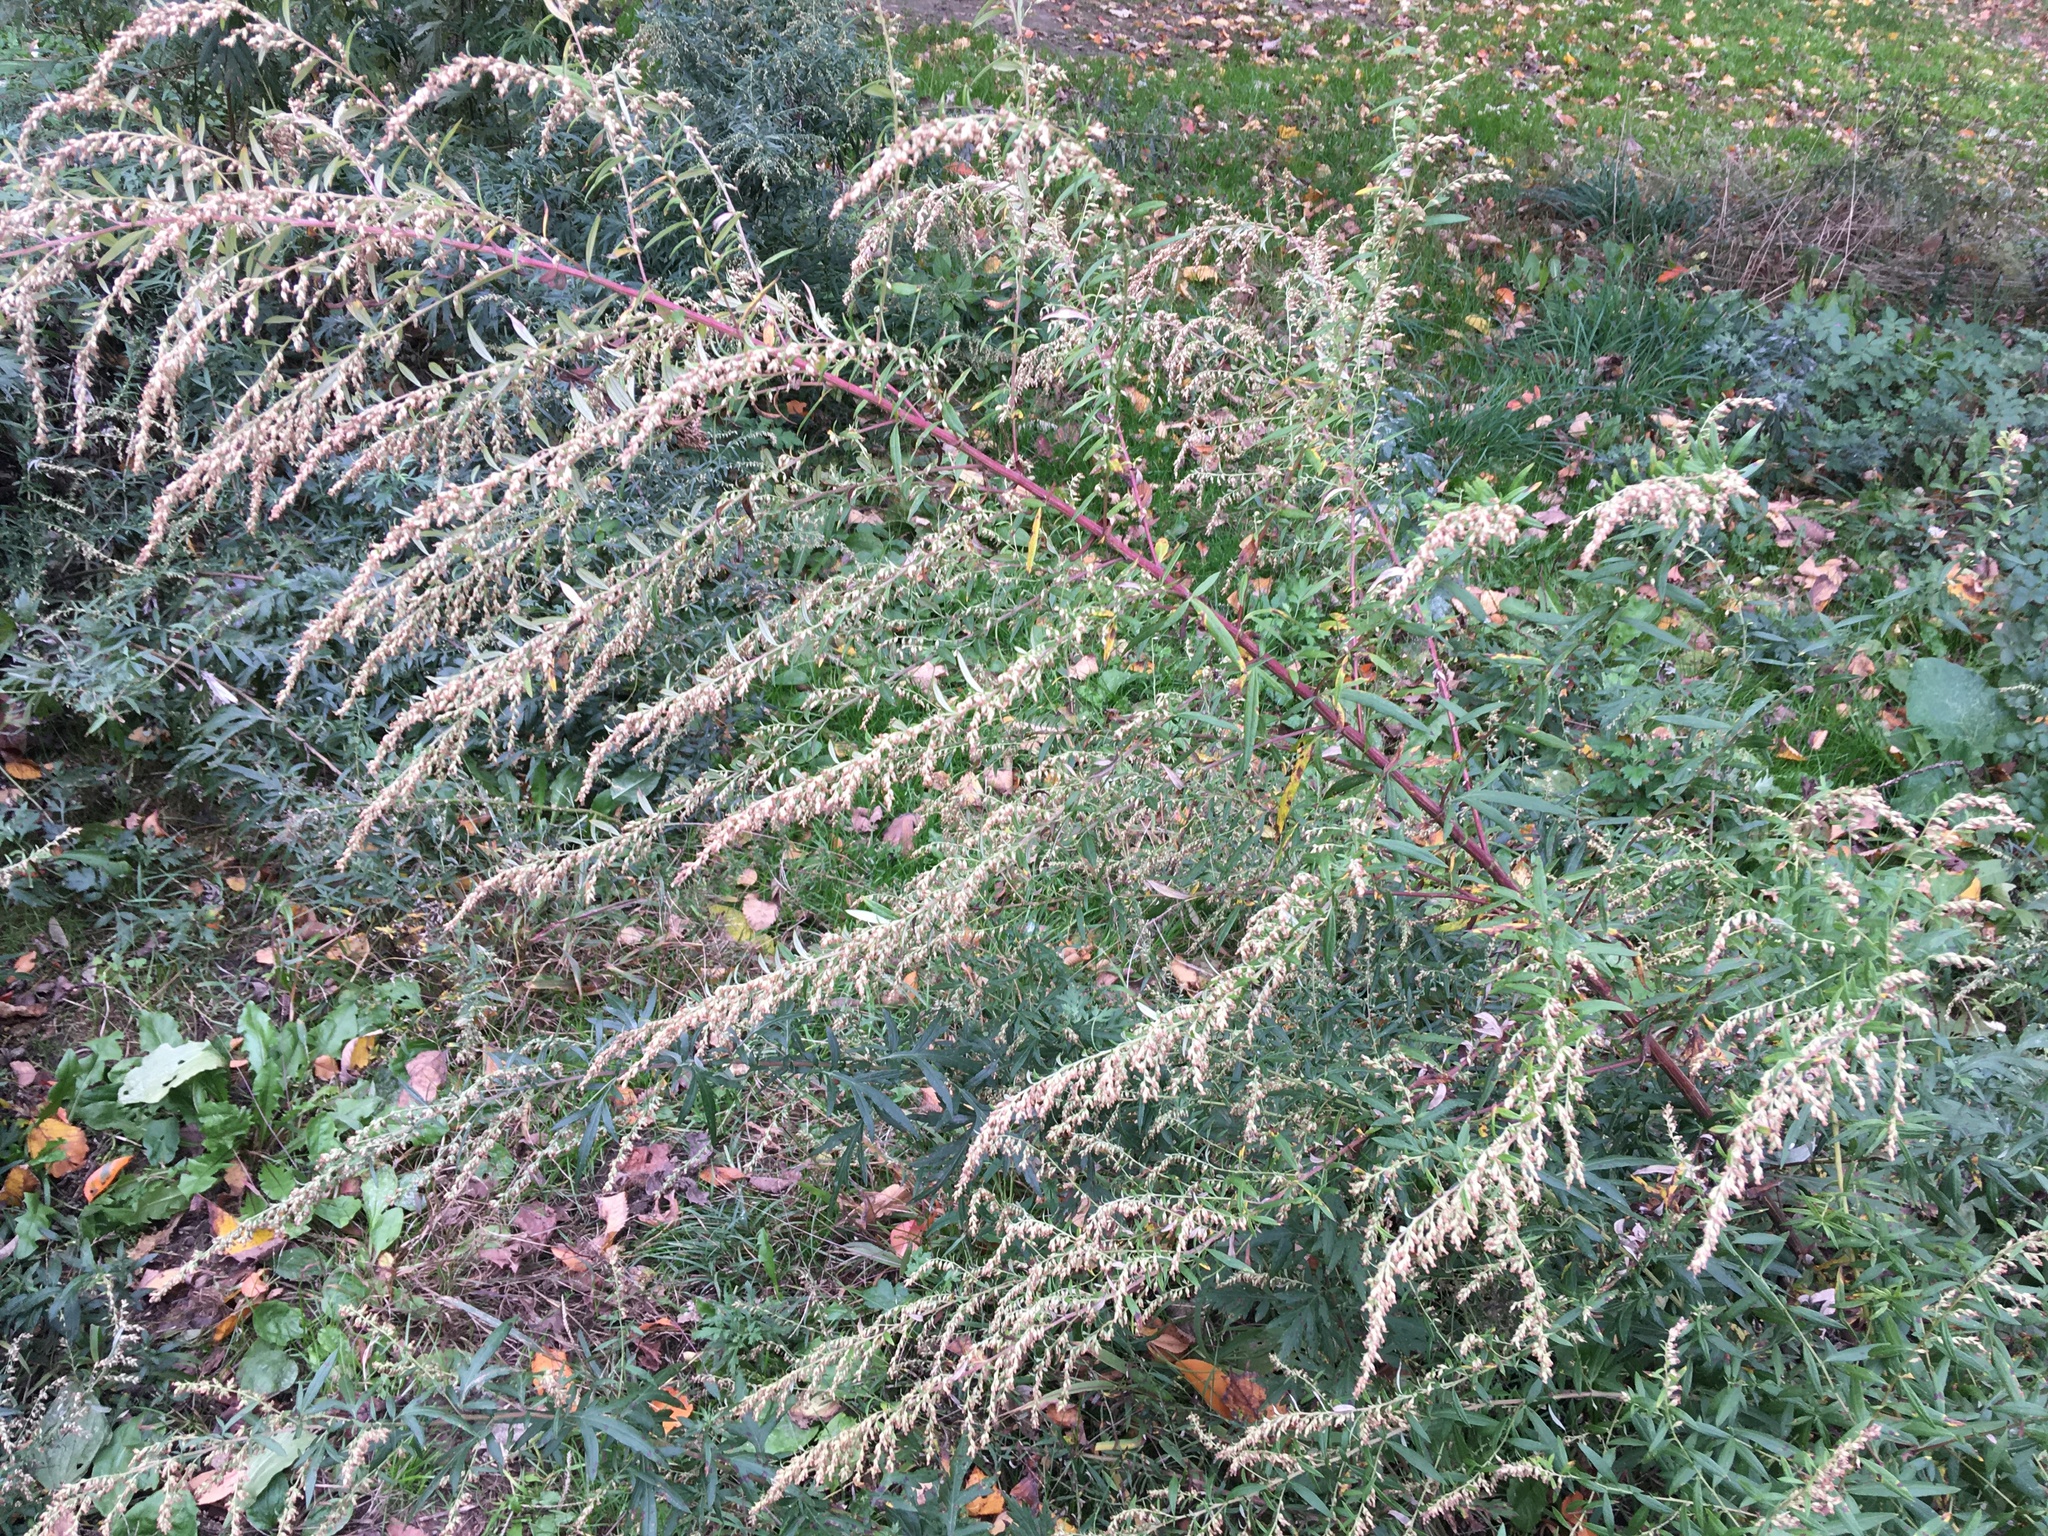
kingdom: Plantae
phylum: Tracheophyta
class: Magnoliopsida
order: Asterales
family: Asteraceae
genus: Artemisia
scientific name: Artemisia vulgaris
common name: Mugwort
